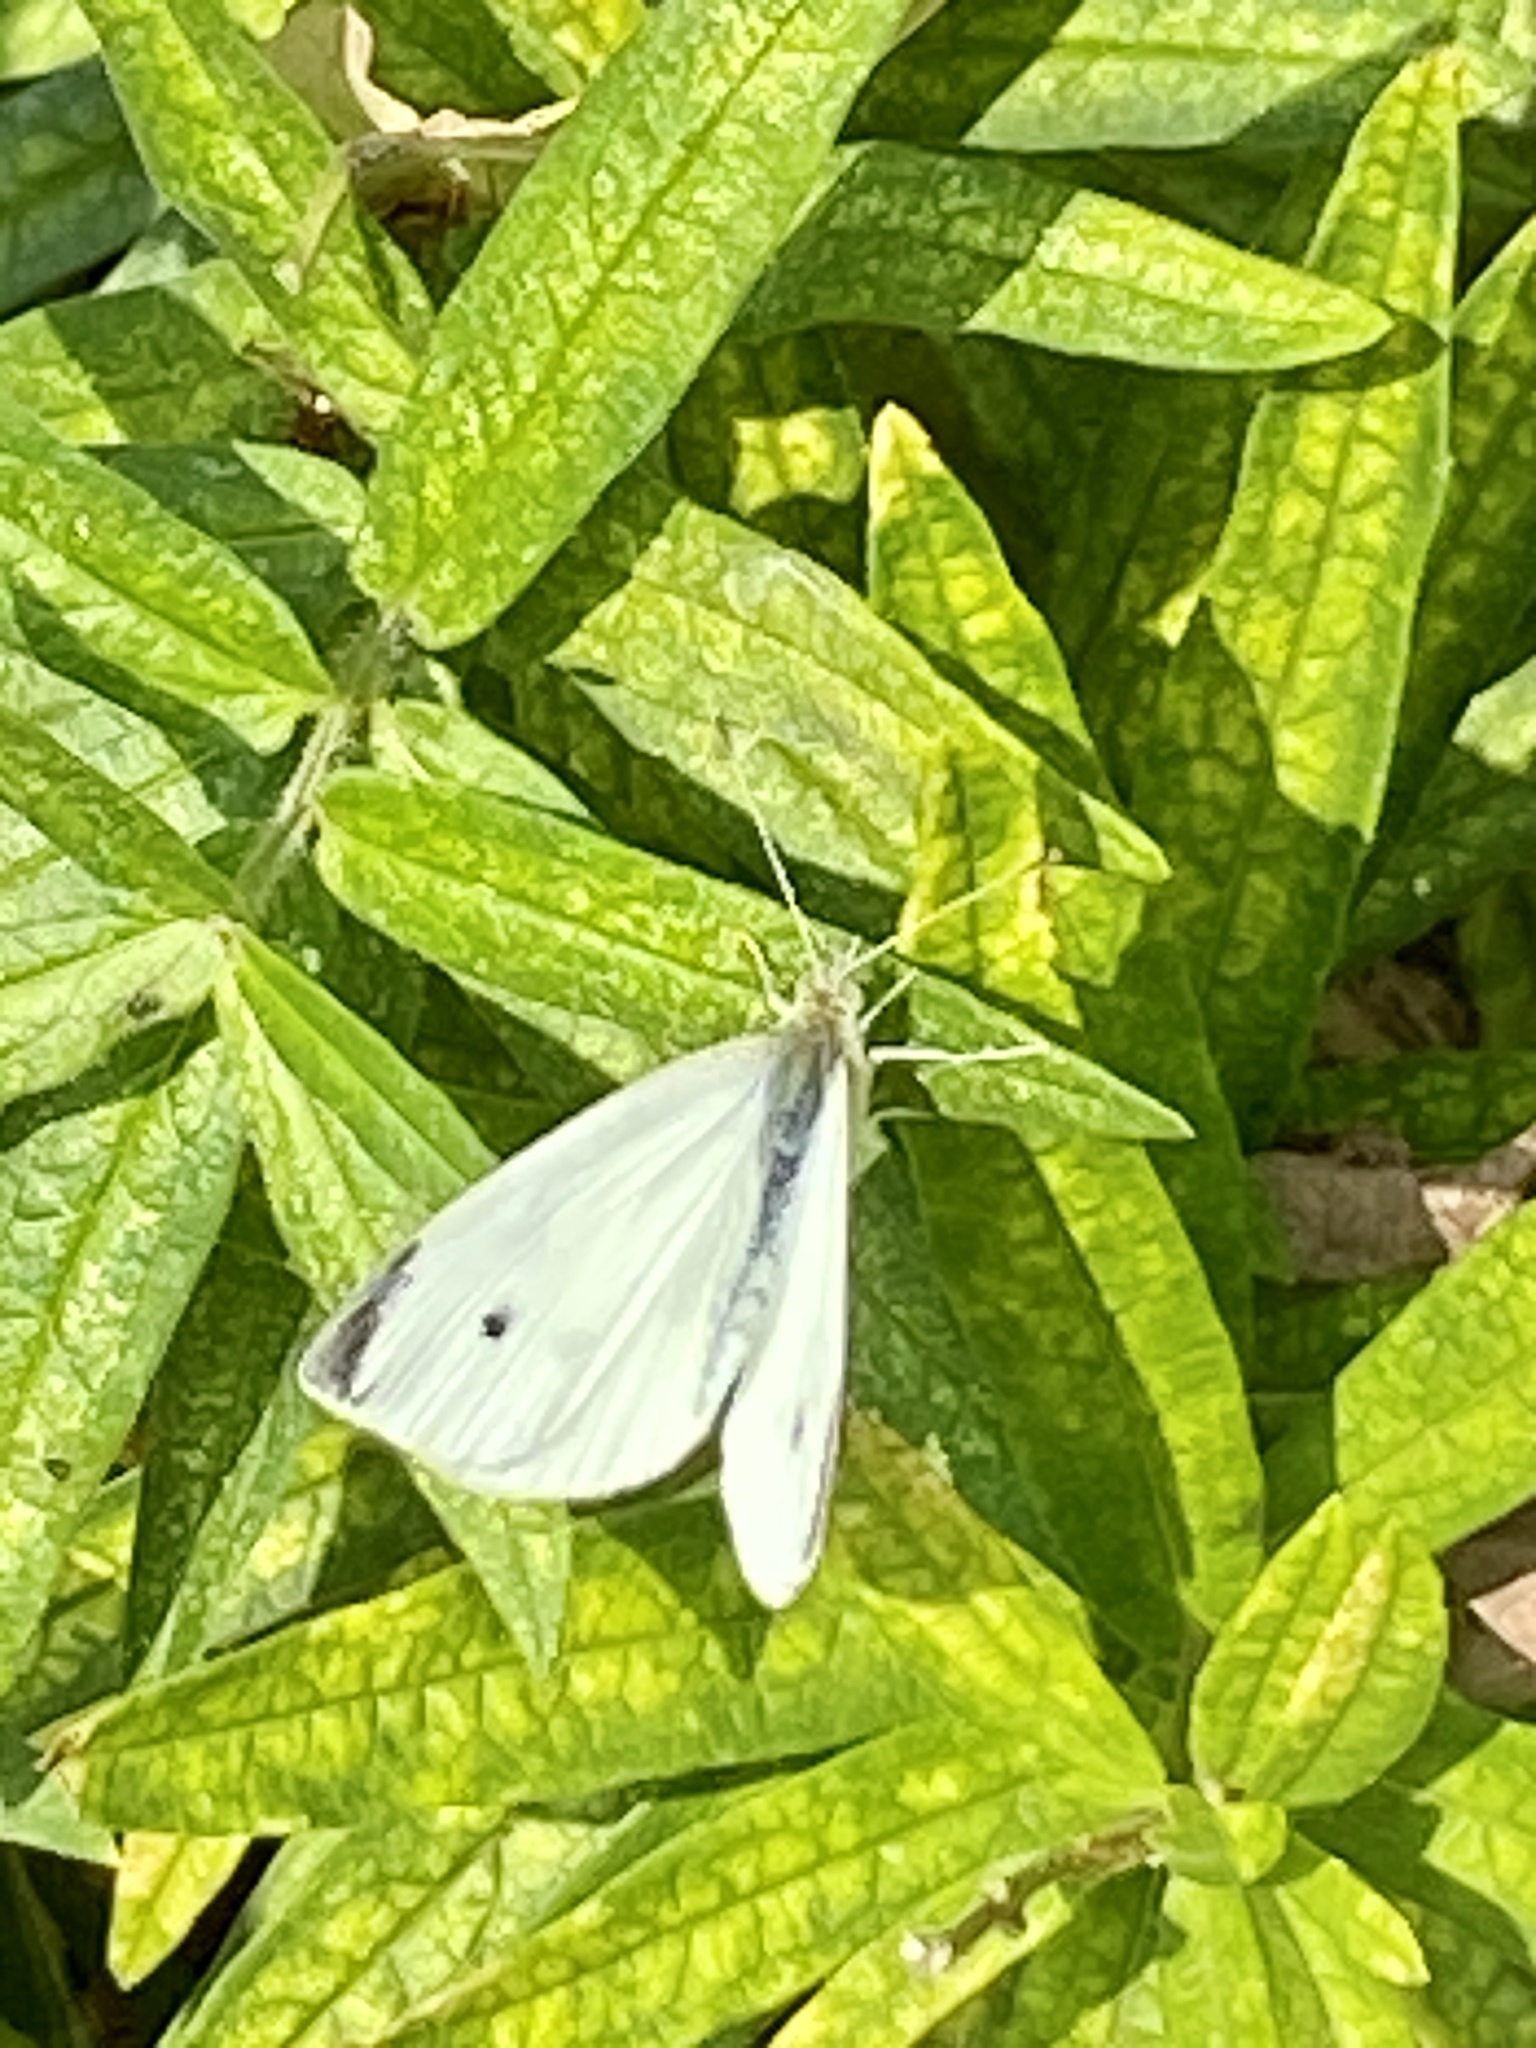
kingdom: Animalia
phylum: Arthropoda
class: Insecta
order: Lepidoptera
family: Pieridae
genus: Pieris
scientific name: Pieris rapae
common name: Small white
